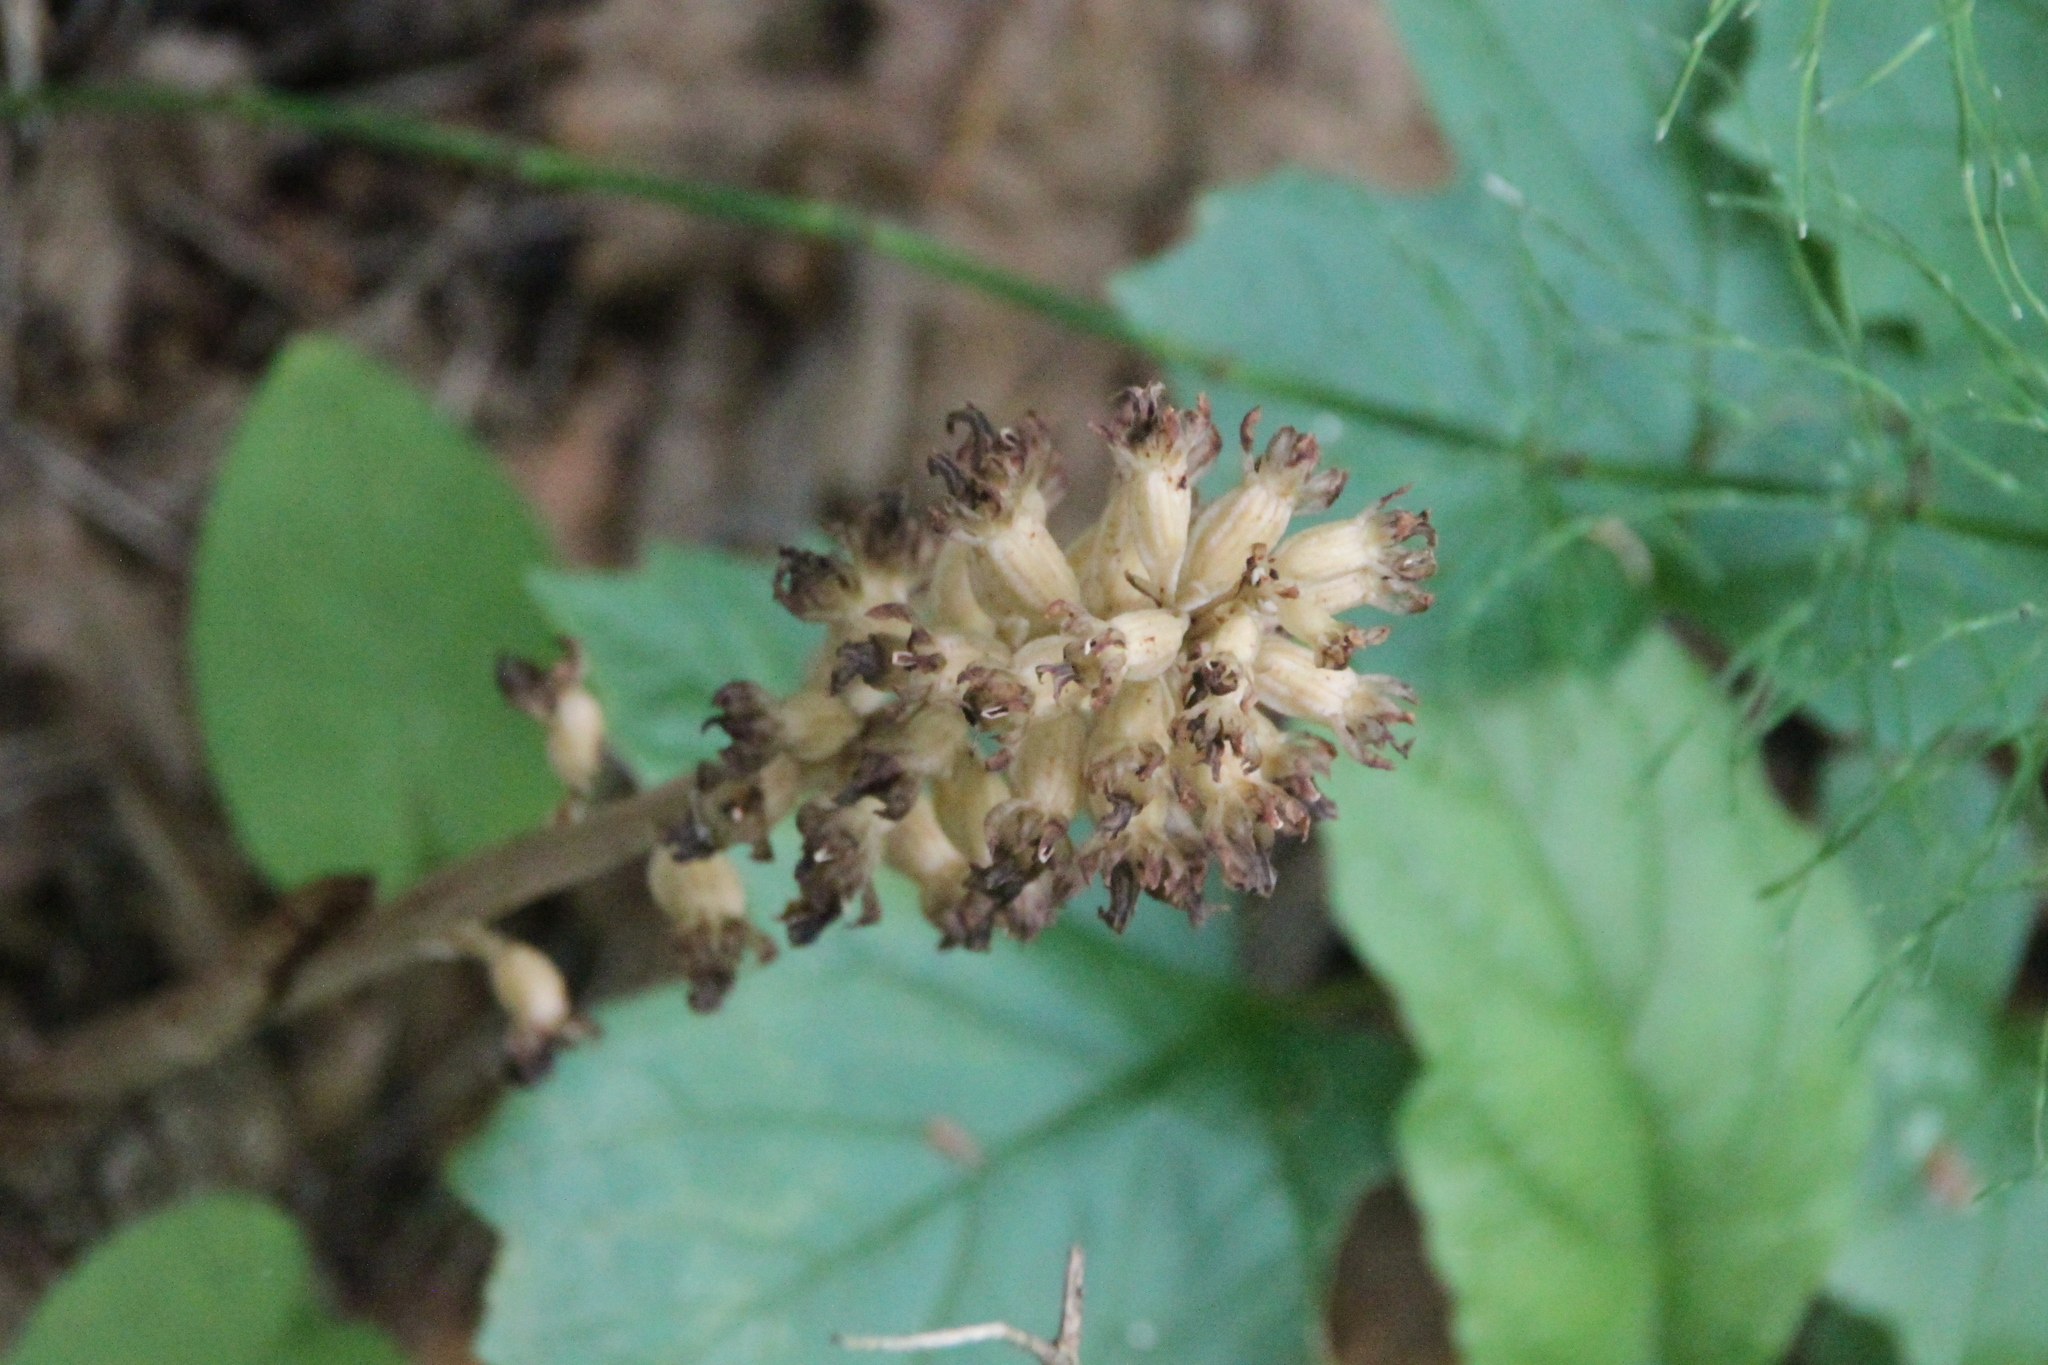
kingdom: Plantae
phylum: Tracheophyta
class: Liliopsida
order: Asparagales
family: Orchidaceae
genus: Neottia
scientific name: Neottia nidus-avis
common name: Bird's-nest orchid
